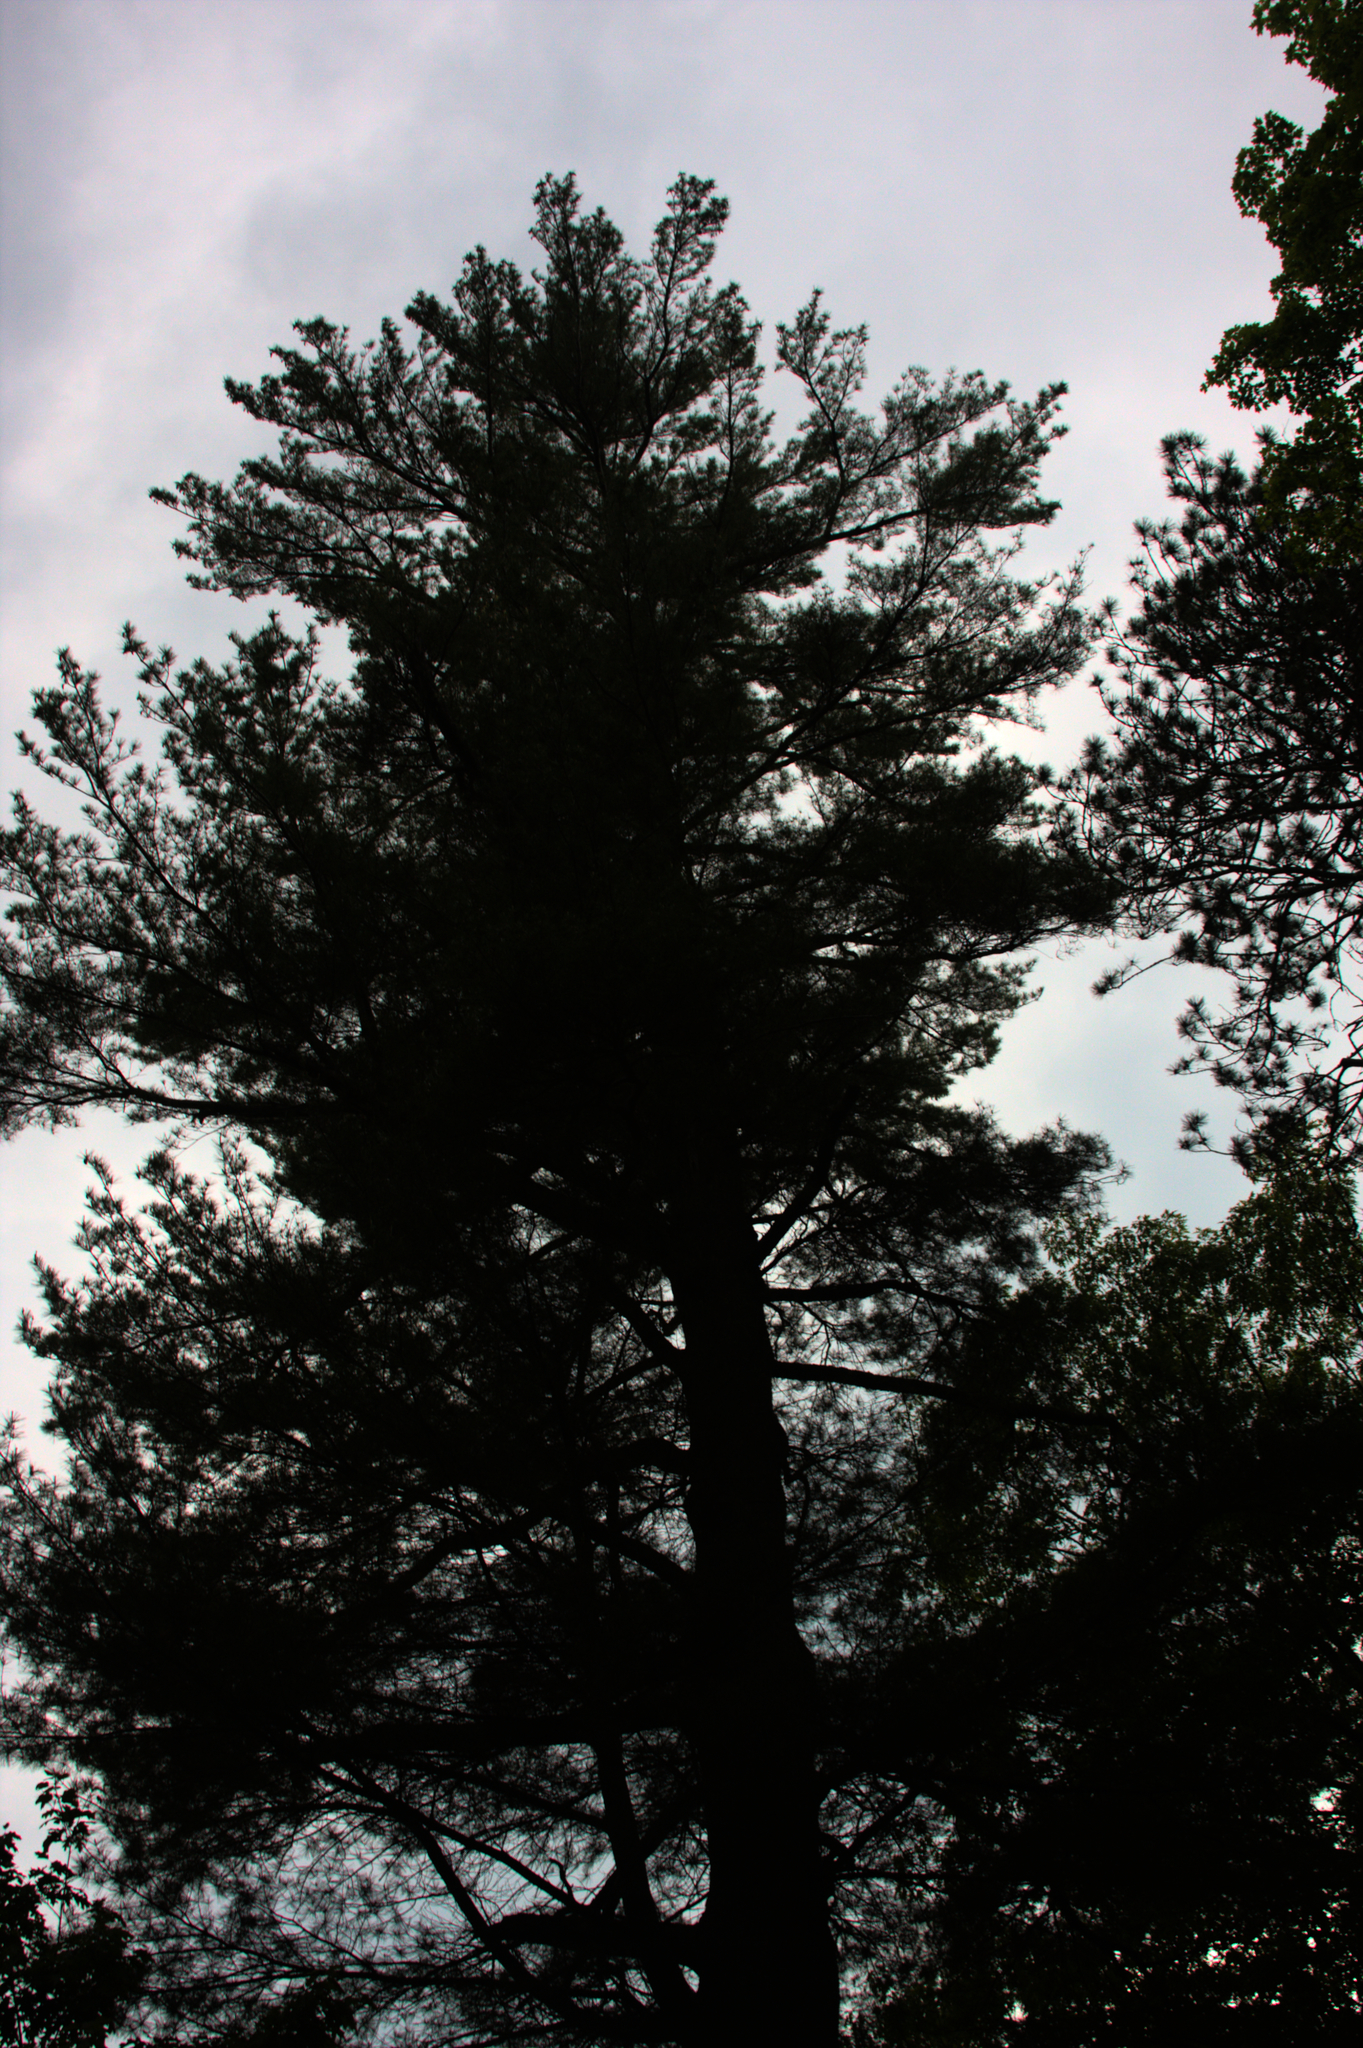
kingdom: Plantae
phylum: Tracheophyta
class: Pinopsida
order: Pinales
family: Pinaceae
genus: Pinus
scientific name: Pinus strobus
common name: Weymouth pine
